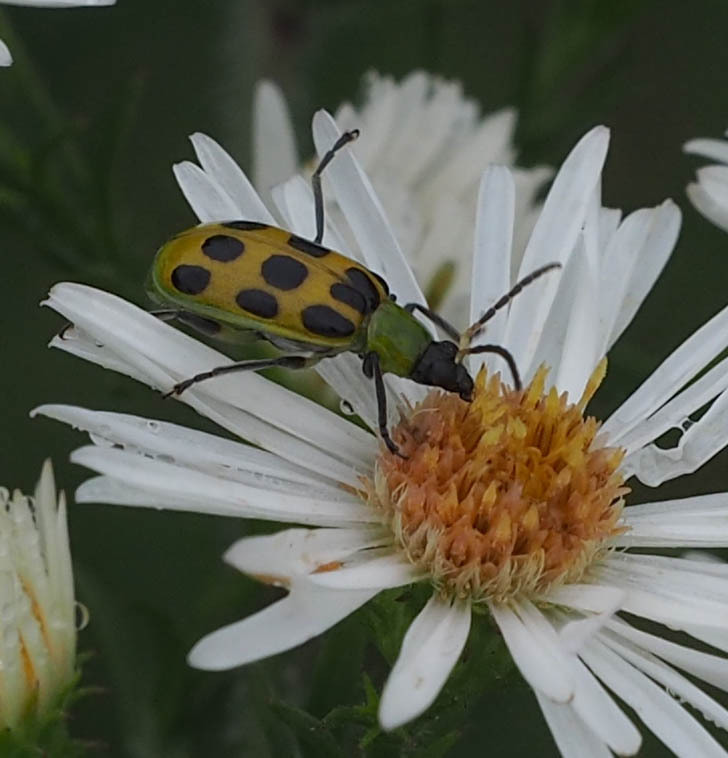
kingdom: Animalia
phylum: Arthropoda
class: Insecta
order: Coleoptera
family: Chrysomelidae
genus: Diabrotica
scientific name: Diabrotica undecimpunctata
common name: Spotted cucumber beetle
